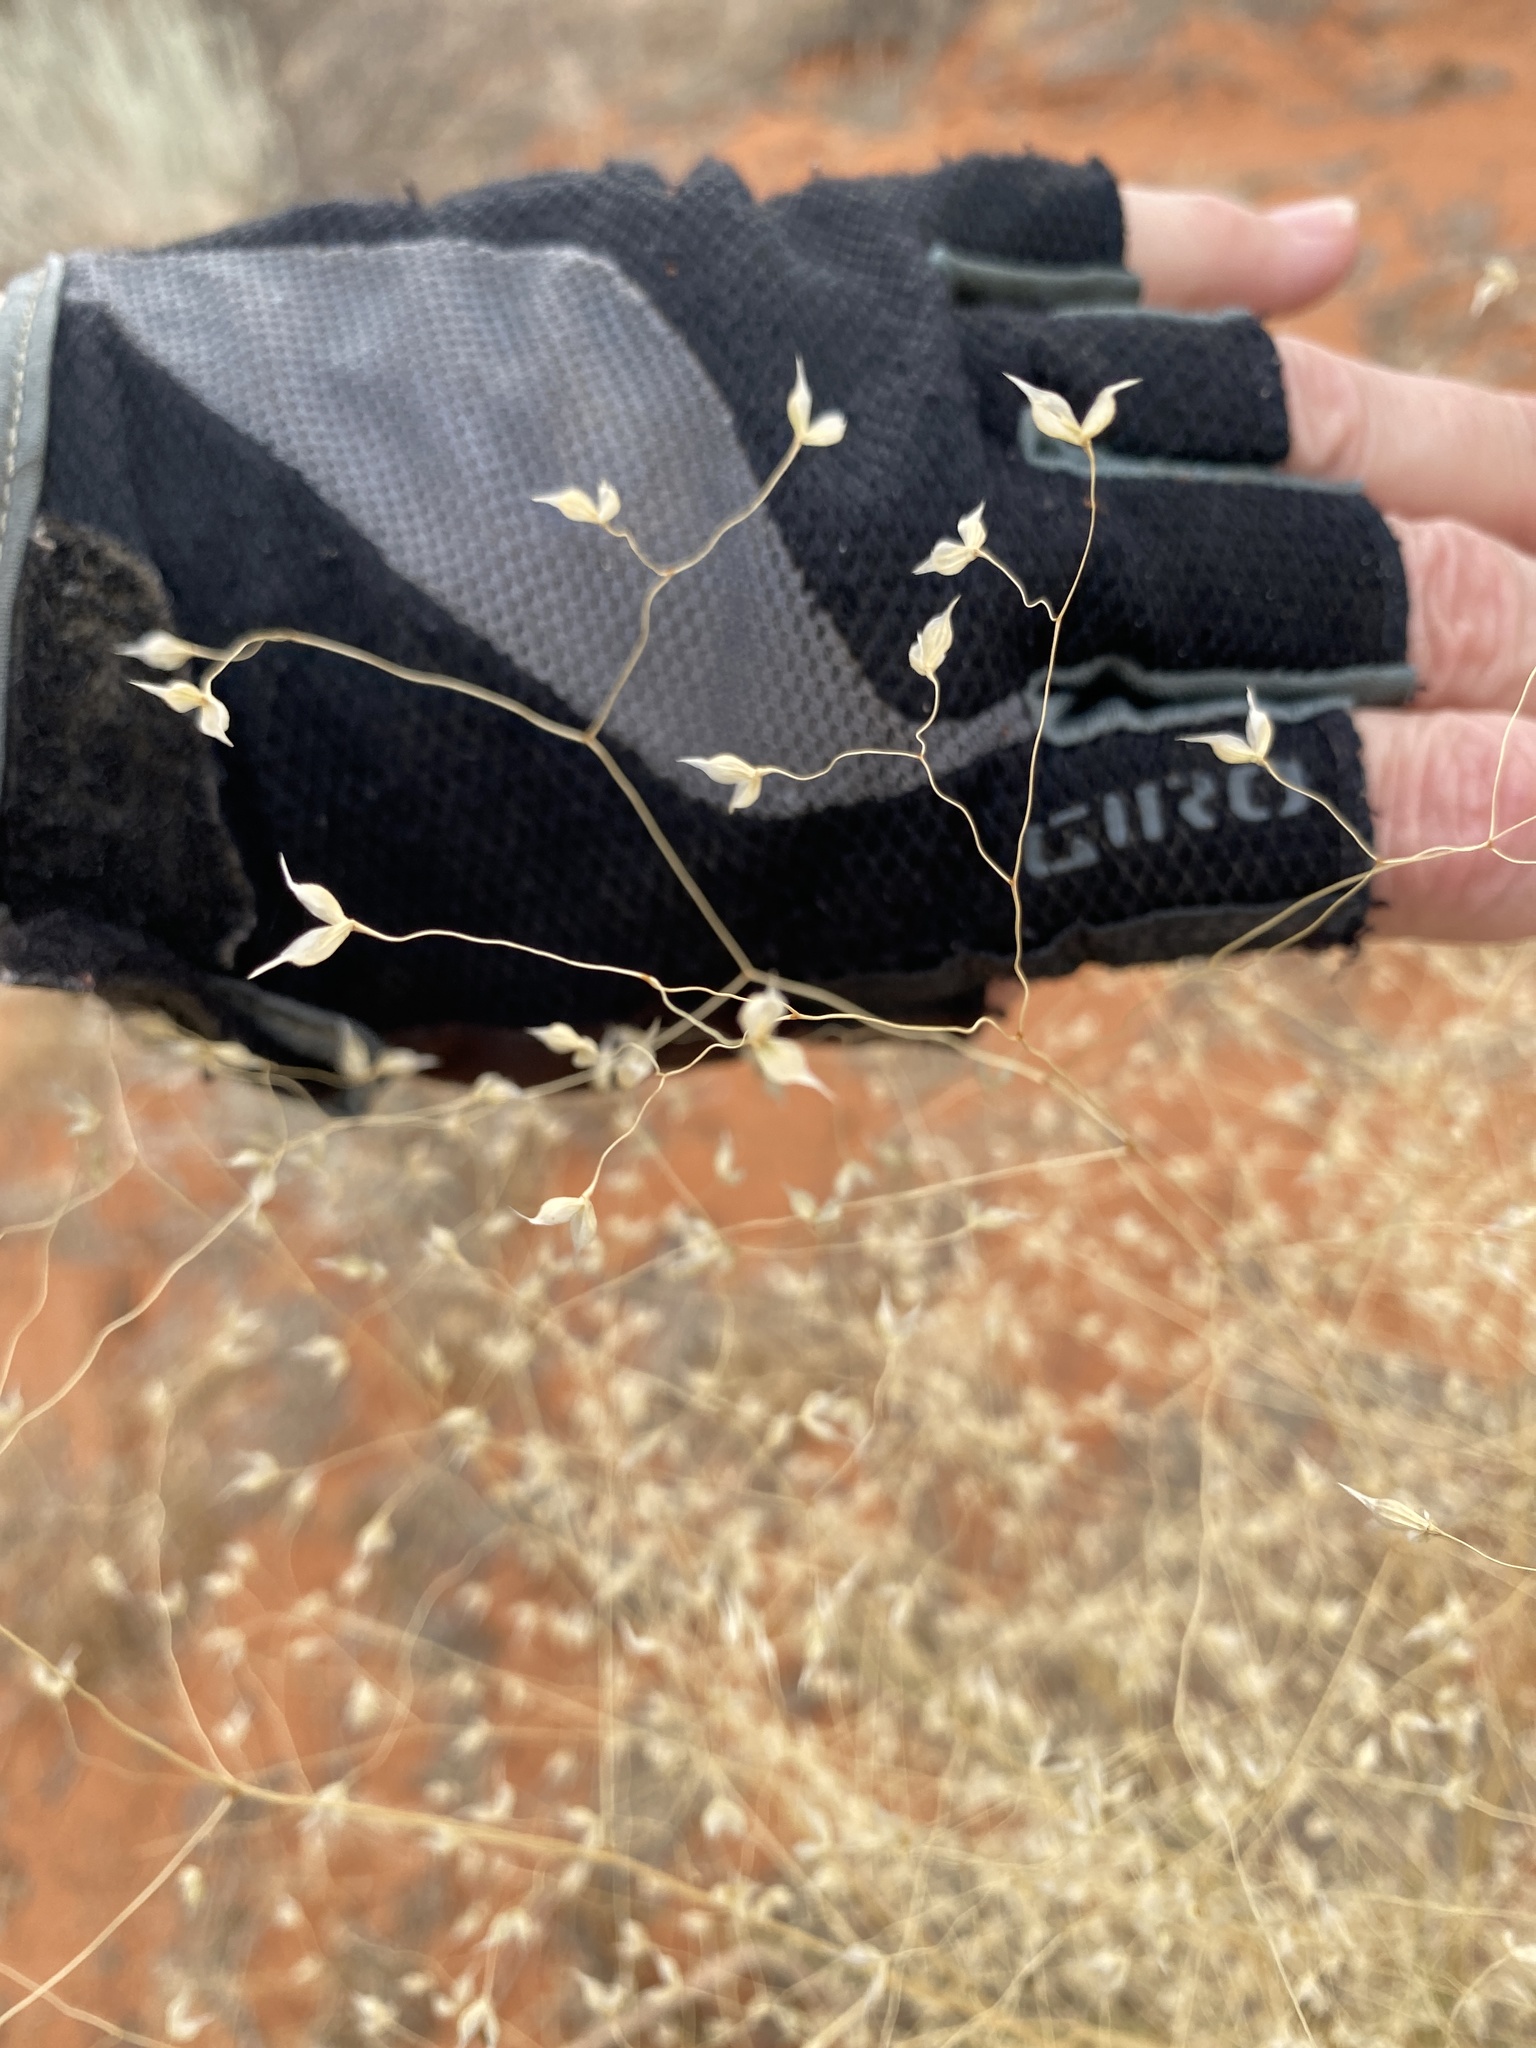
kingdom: Plantae
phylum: Tracheophyta
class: Liliopsida
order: Poales
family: Poaceae
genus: Eriocoma
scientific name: Eriocoma hymenoides
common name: Indian mountain ricegrass
